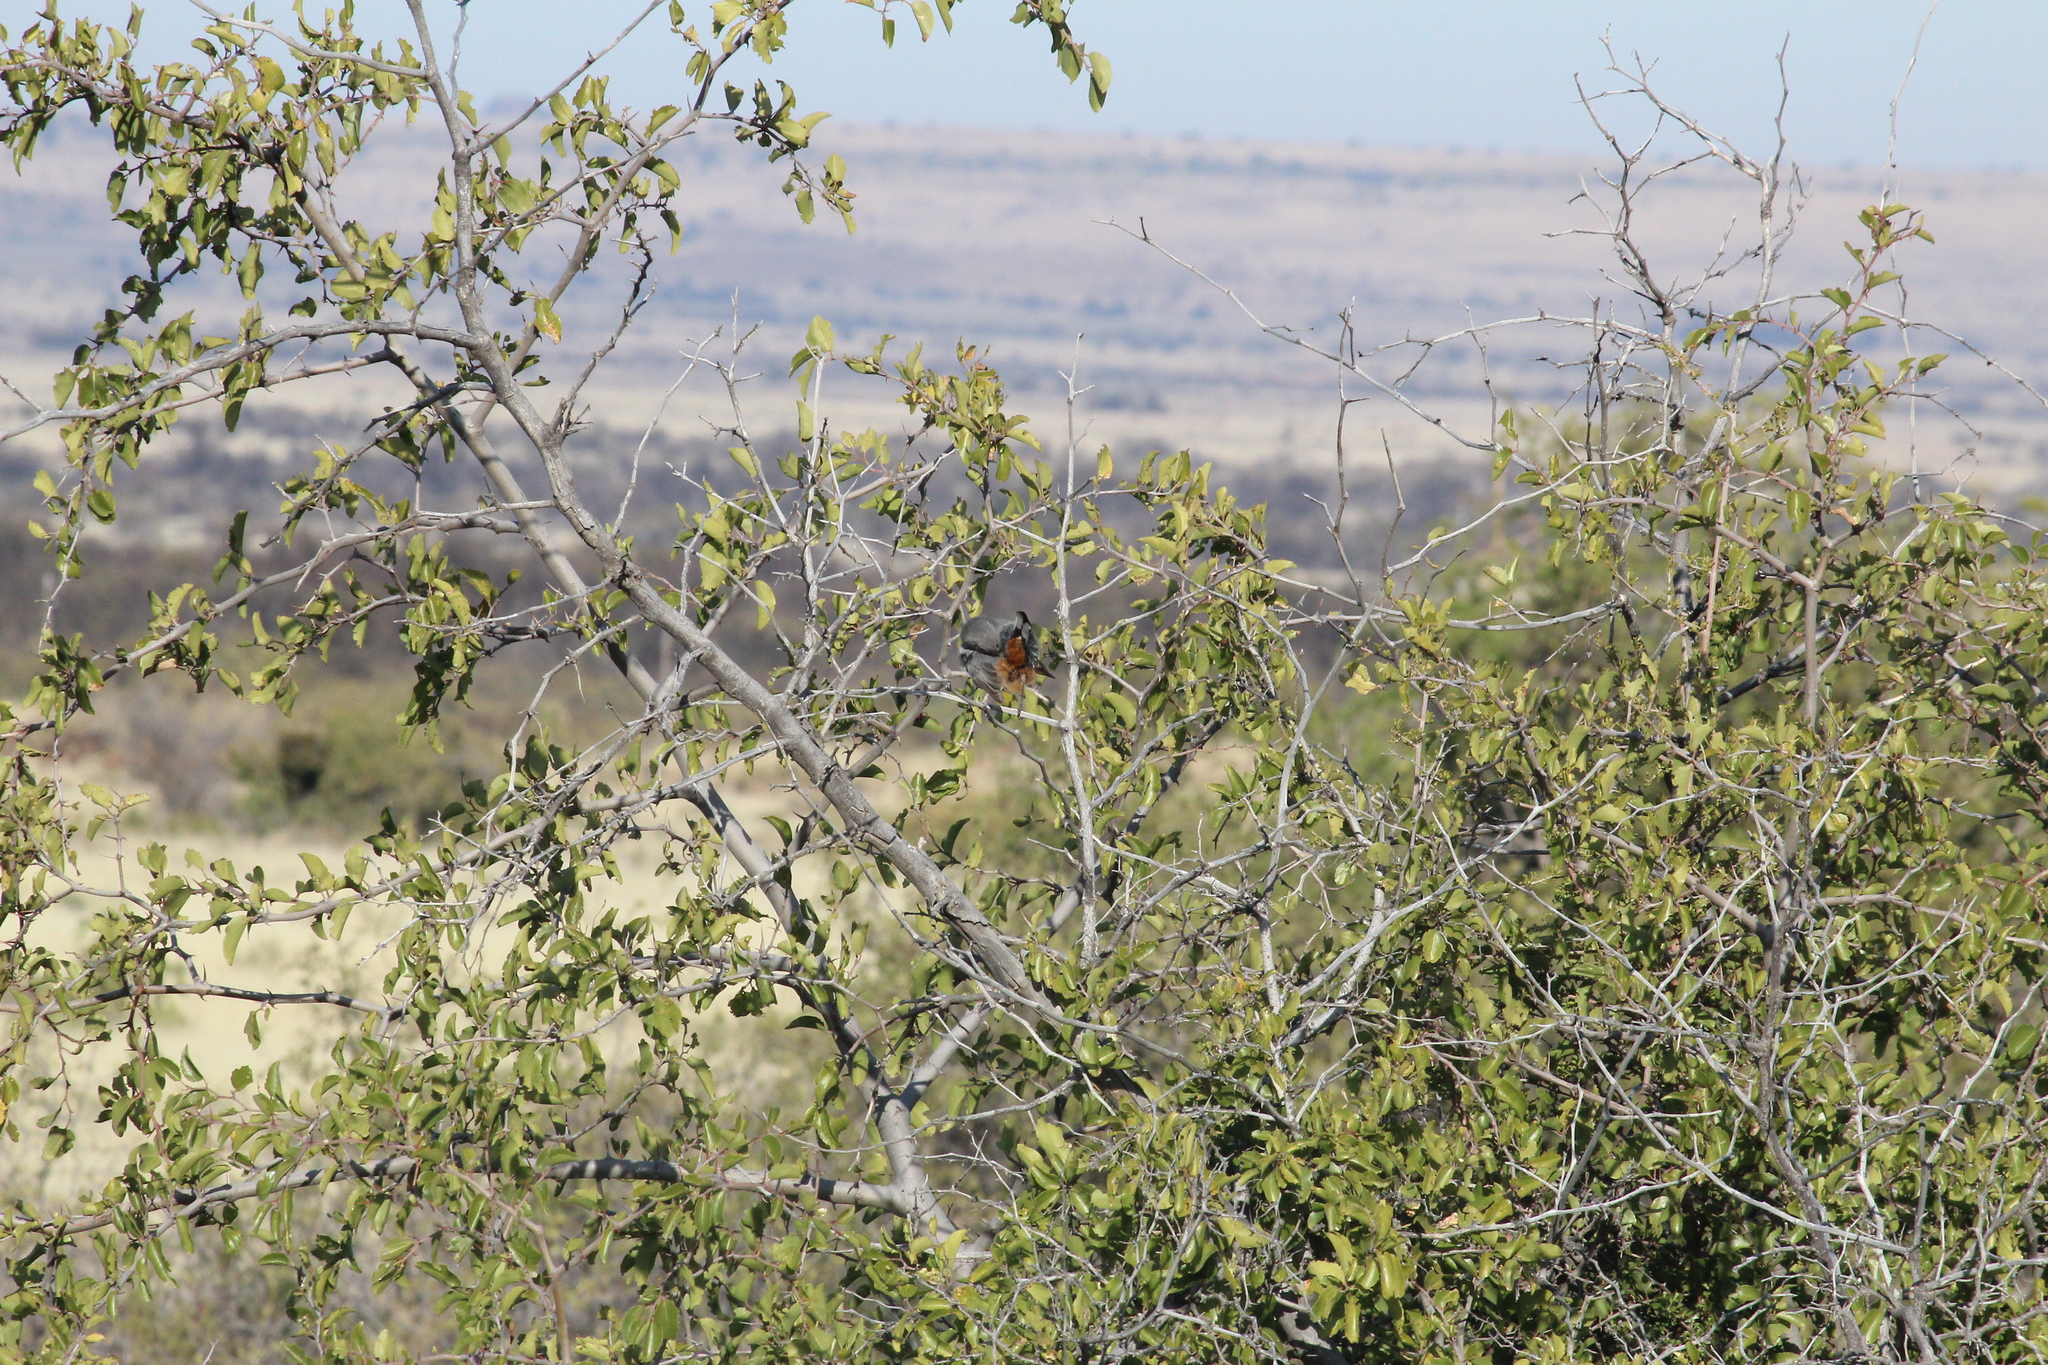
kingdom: Animalia
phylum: Chordata
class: Aves
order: Passeriformes
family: Sylviidae
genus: Curruca
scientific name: Curruca subcoerulea
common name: Chestnut-vented warbler
